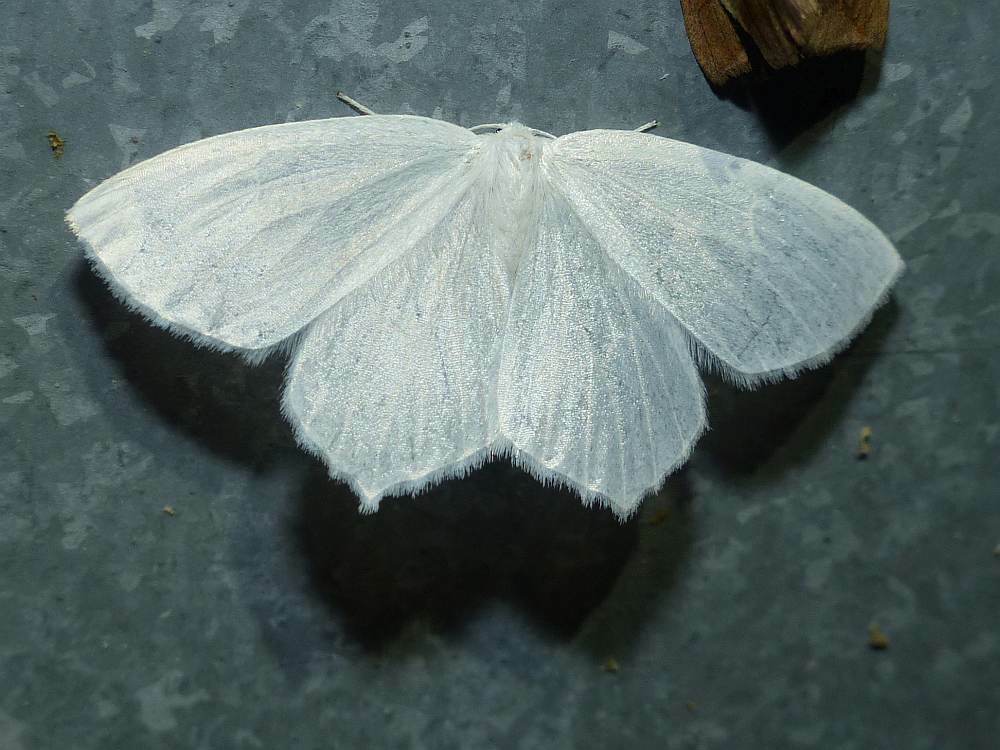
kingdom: Animalia
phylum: Arthropoda
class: Insecta
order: Lepidoptera
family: Geometridae
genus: Eugonobapta
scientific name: Eugonobapta nivosaria
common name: Snowy geometer
